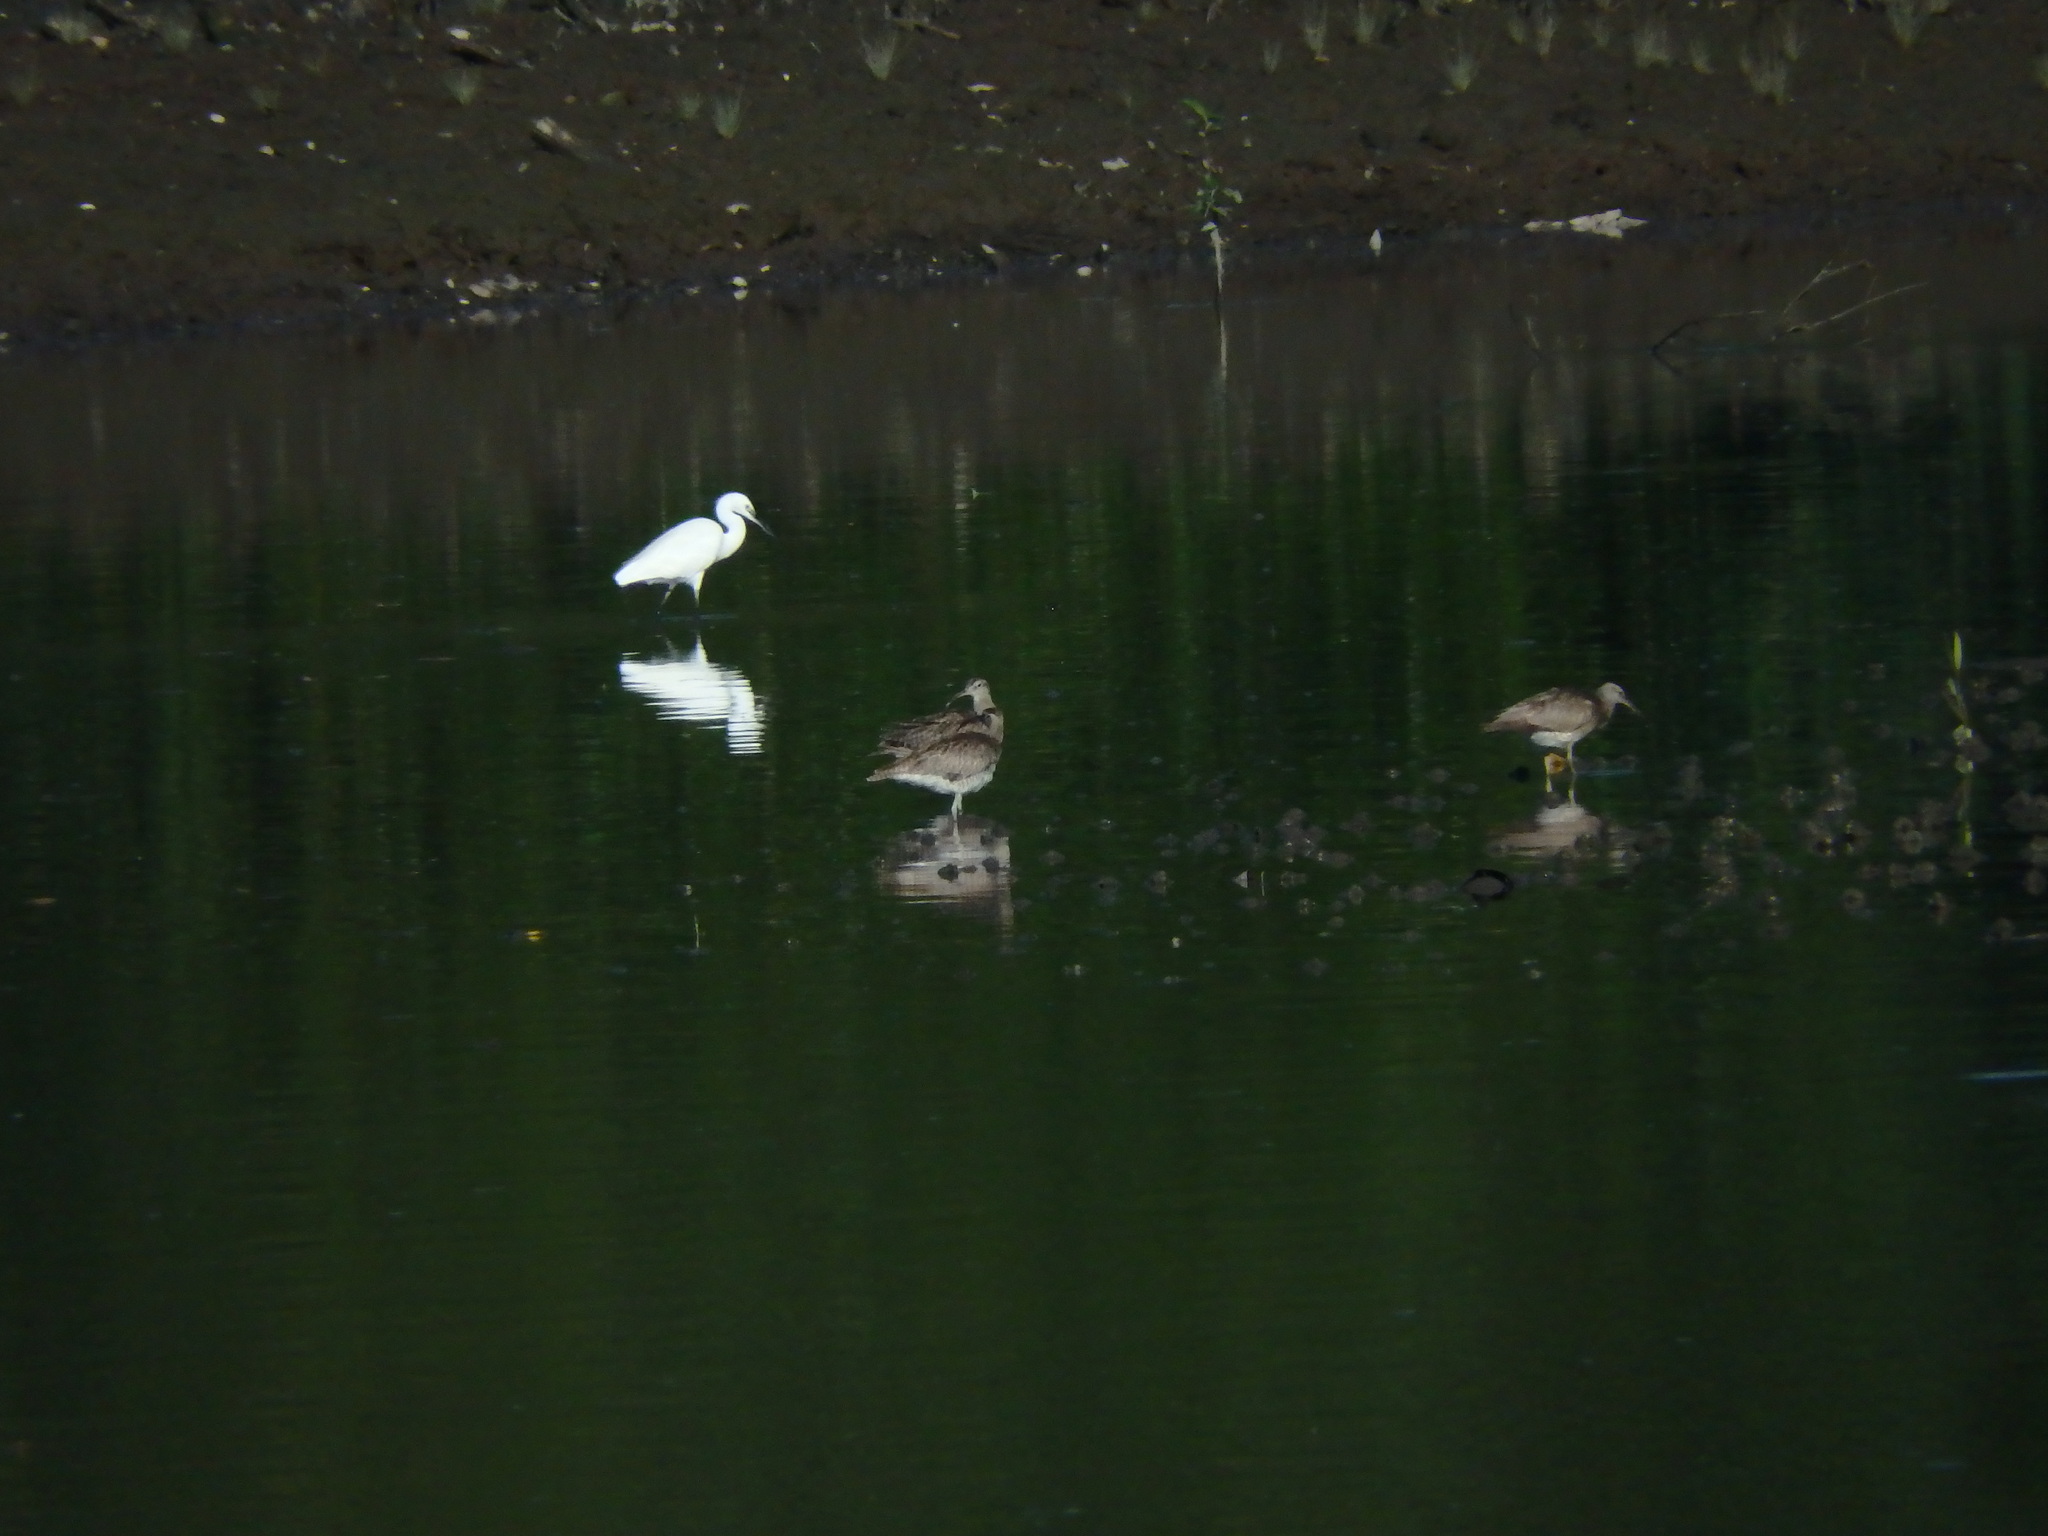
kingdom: Animalia
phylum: Chordata
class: Aves
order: Pelecaniformes
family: Ardeidae
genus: Egretta
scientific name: Egretta garzetta
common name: Little egret
